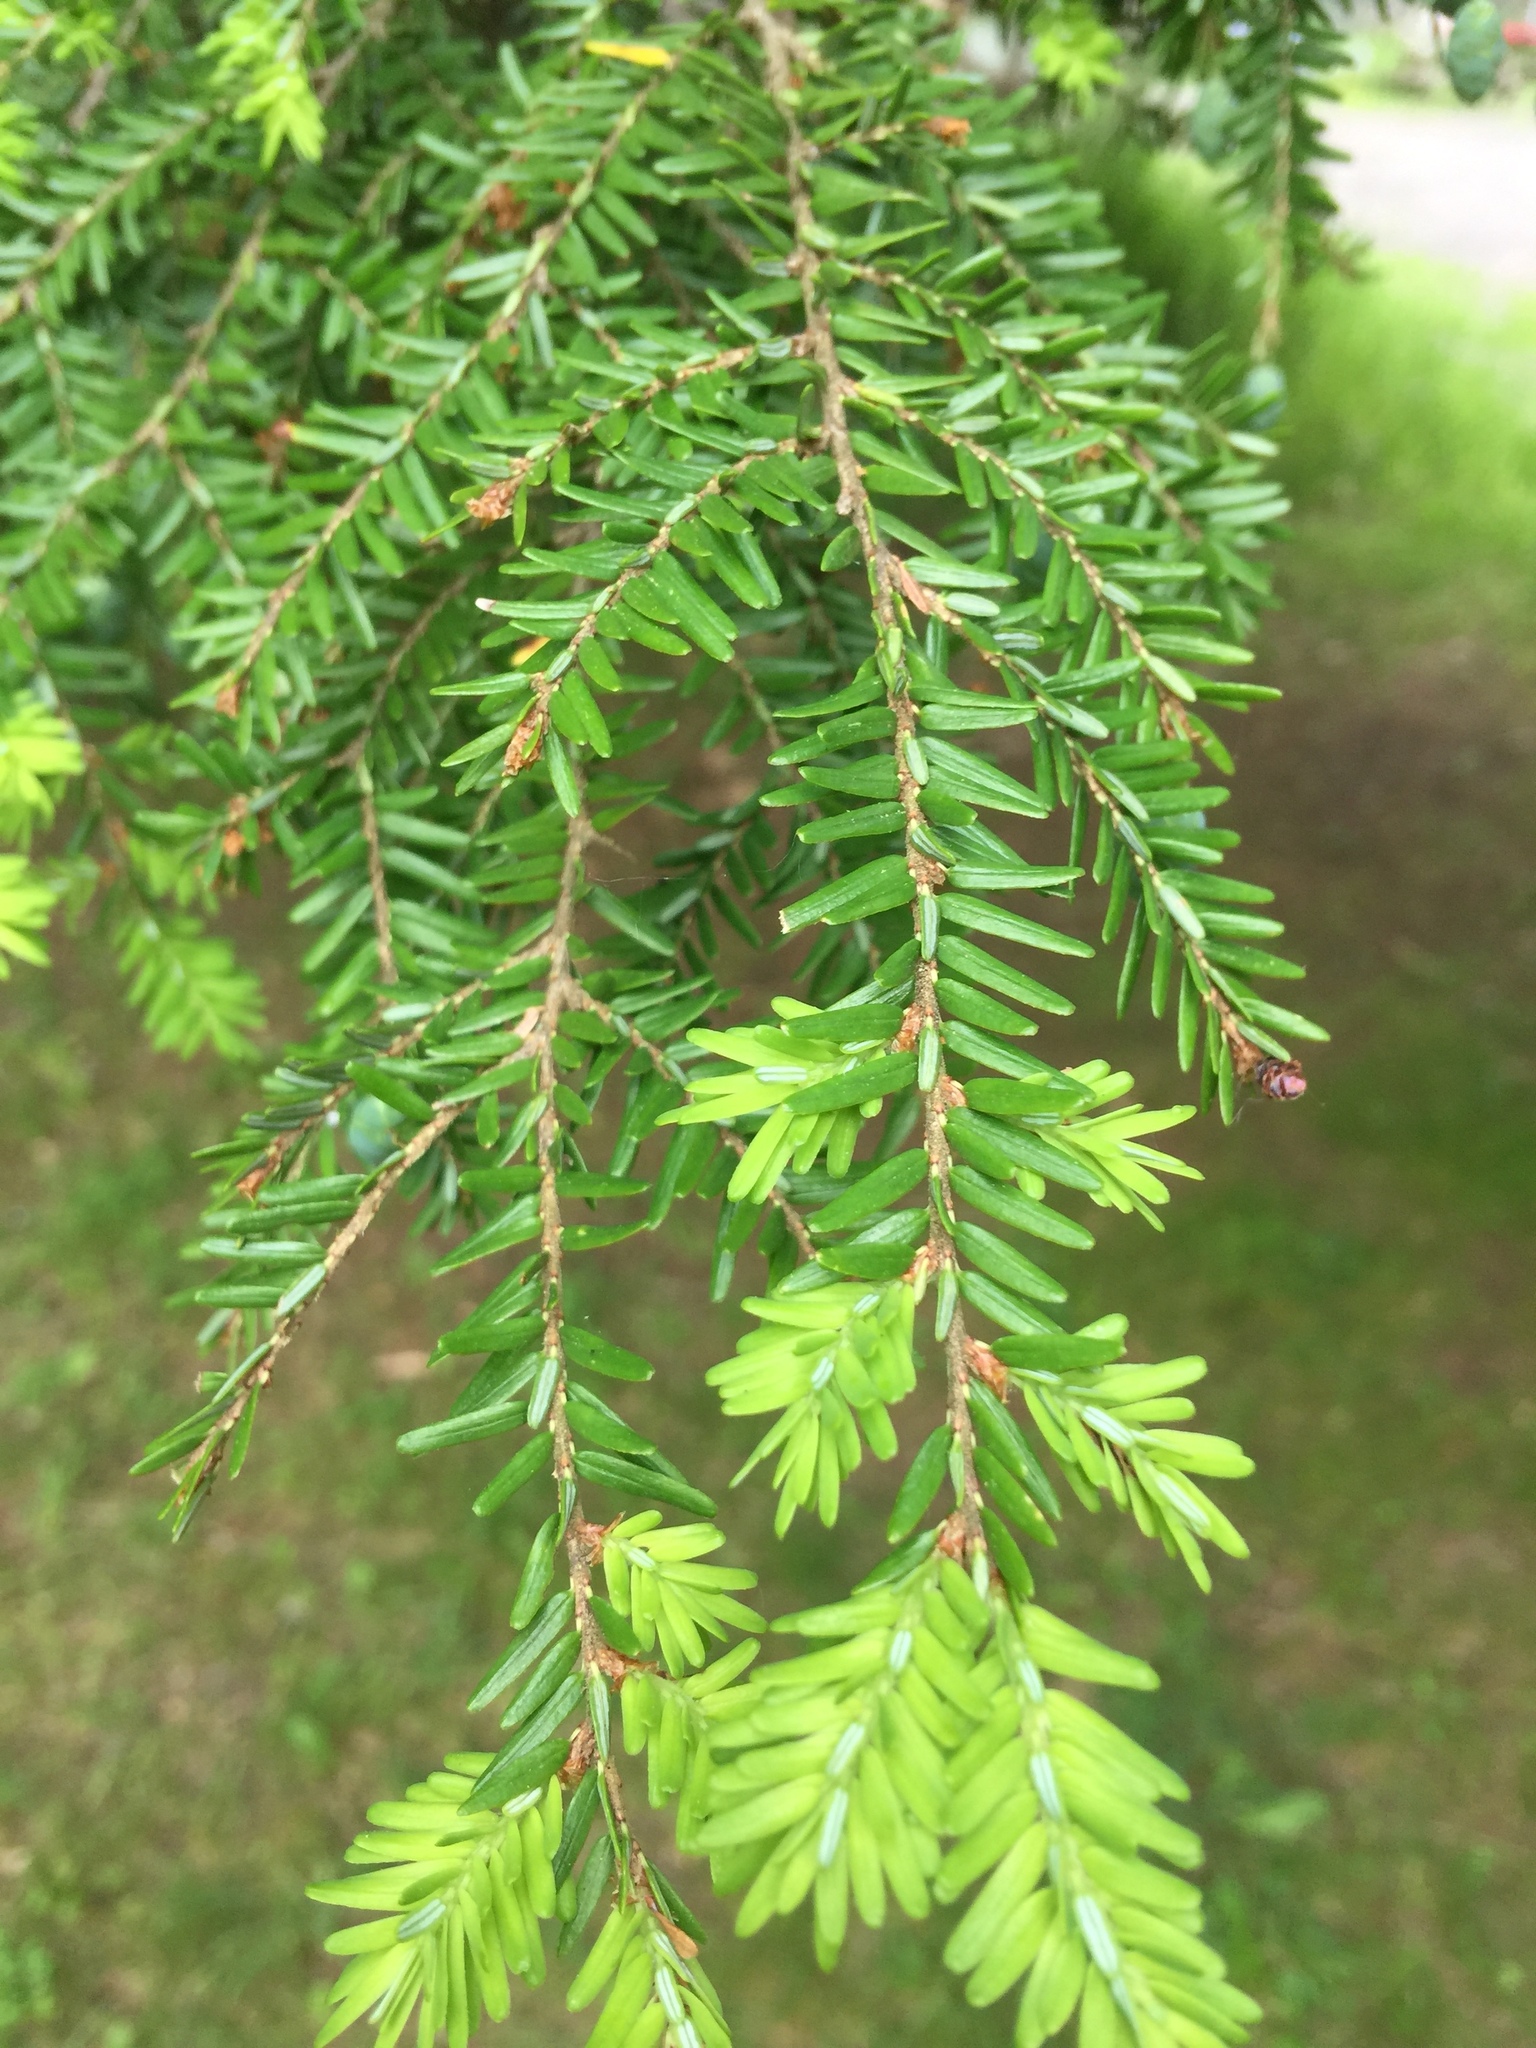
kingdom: Plantae
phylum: Tracheophyta
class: Pinopsida
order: Pinales
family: Pinaceae
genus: Tsuga
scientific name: Tsuga canadensis
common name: Eastern hemlock
